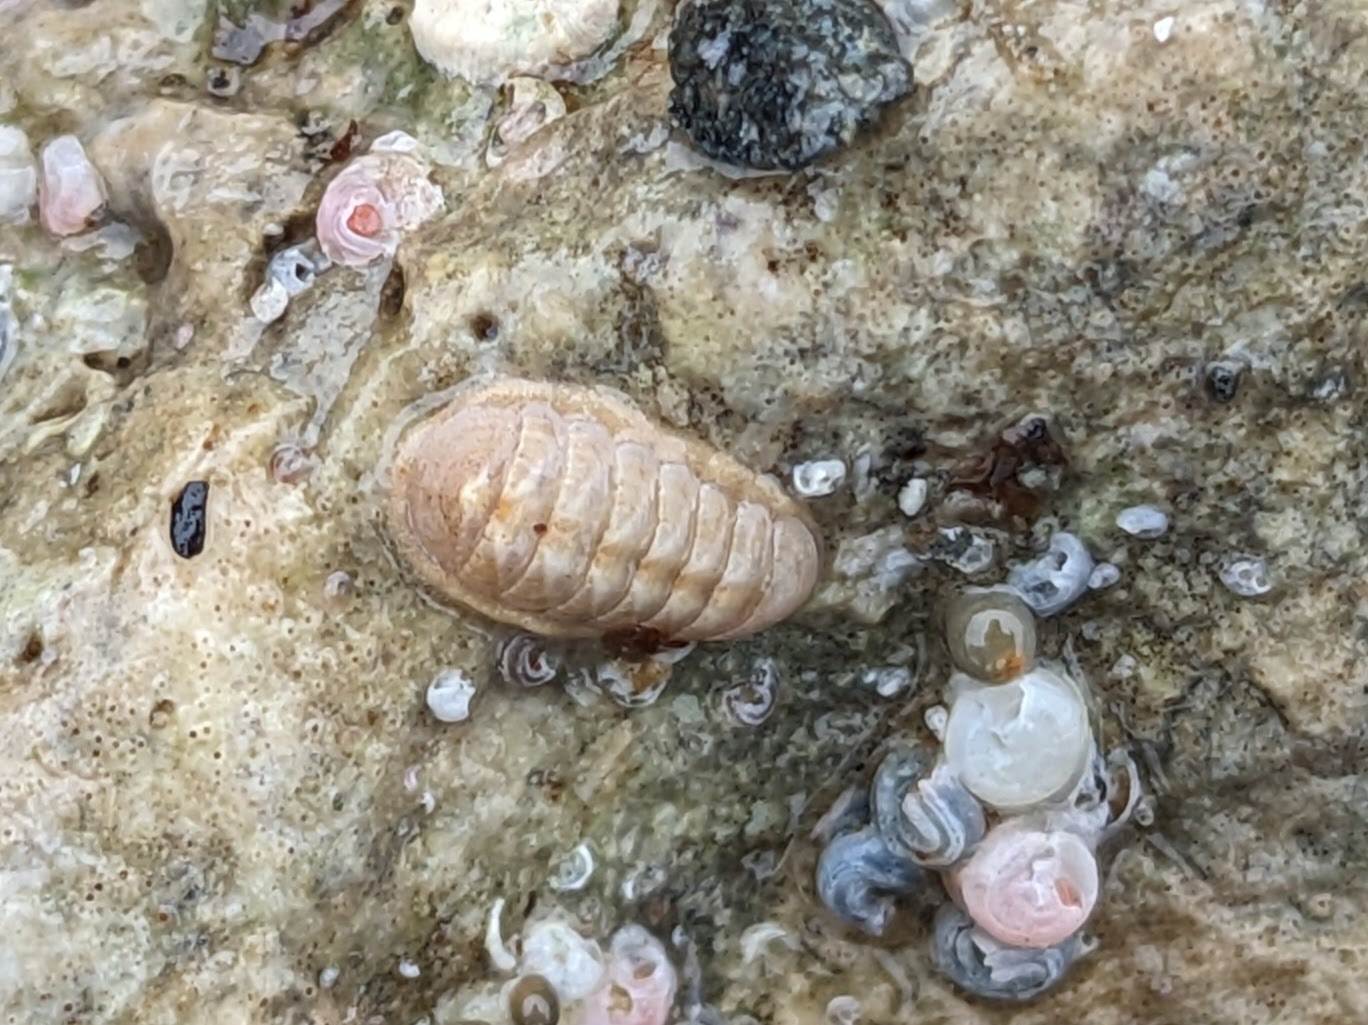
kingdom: Animalia
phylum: Mollusca
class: Polyplacophora
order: Lepidopleurida
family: Leptochitonidae
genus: Leptochiton
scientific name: Leptochiton cascadiensis
